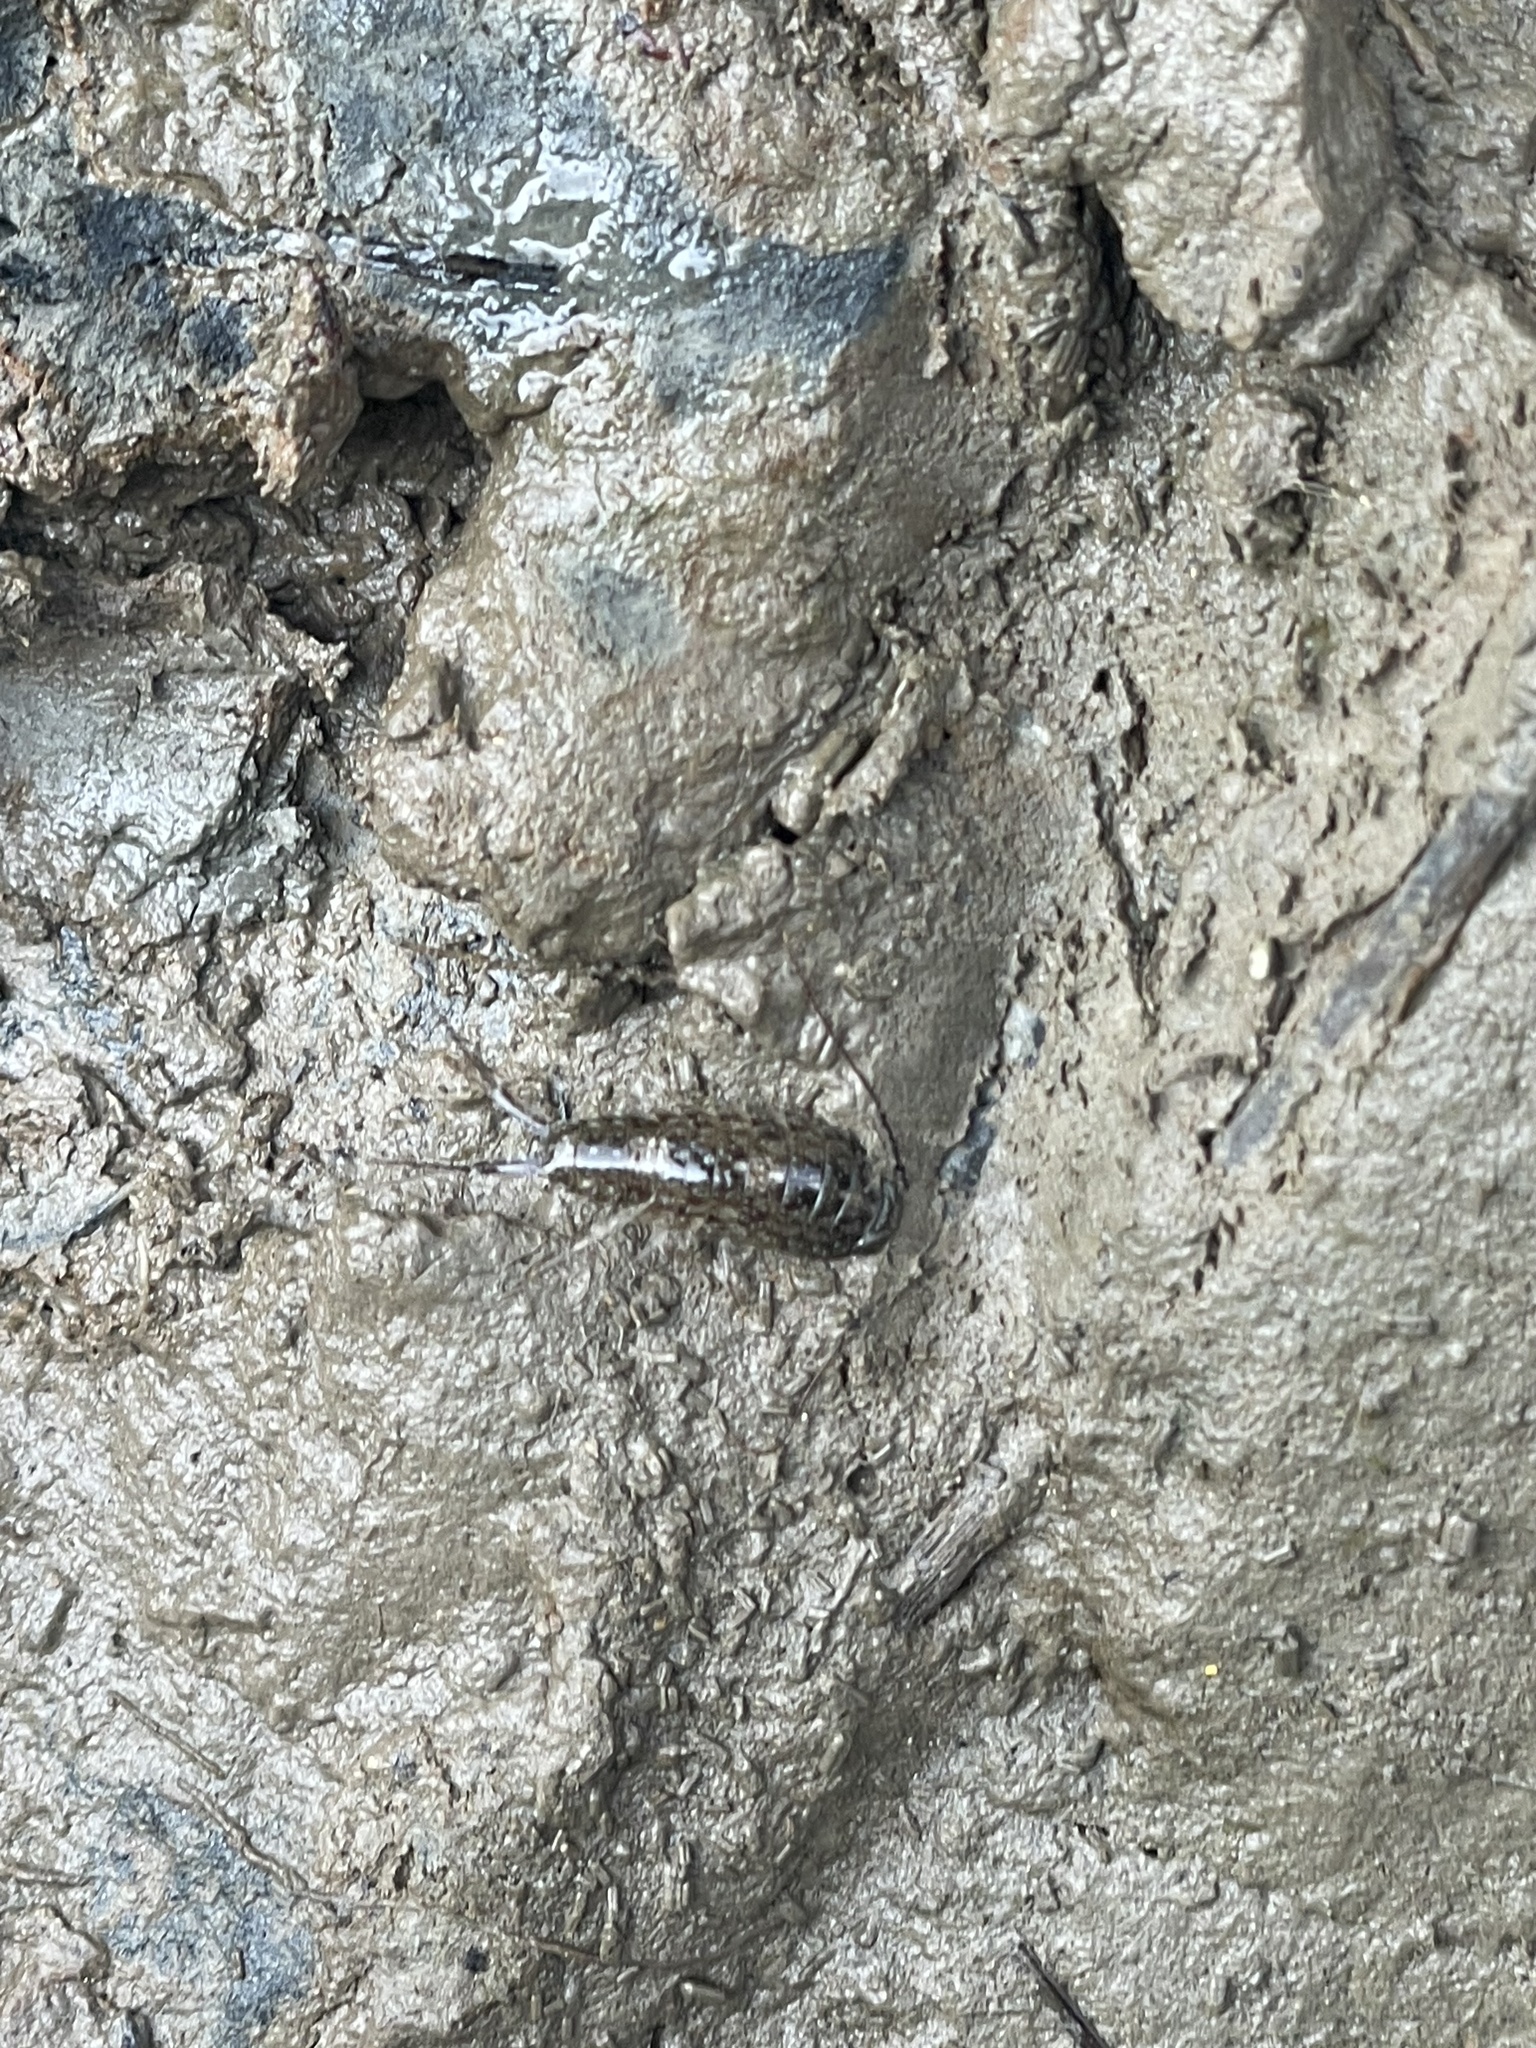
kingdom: Animalia
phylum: Arthropoda
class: Malacostraca
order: Isopoda
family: Ligiidae
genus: Ligia
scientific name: Ligia exotica
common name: Wharf roach
